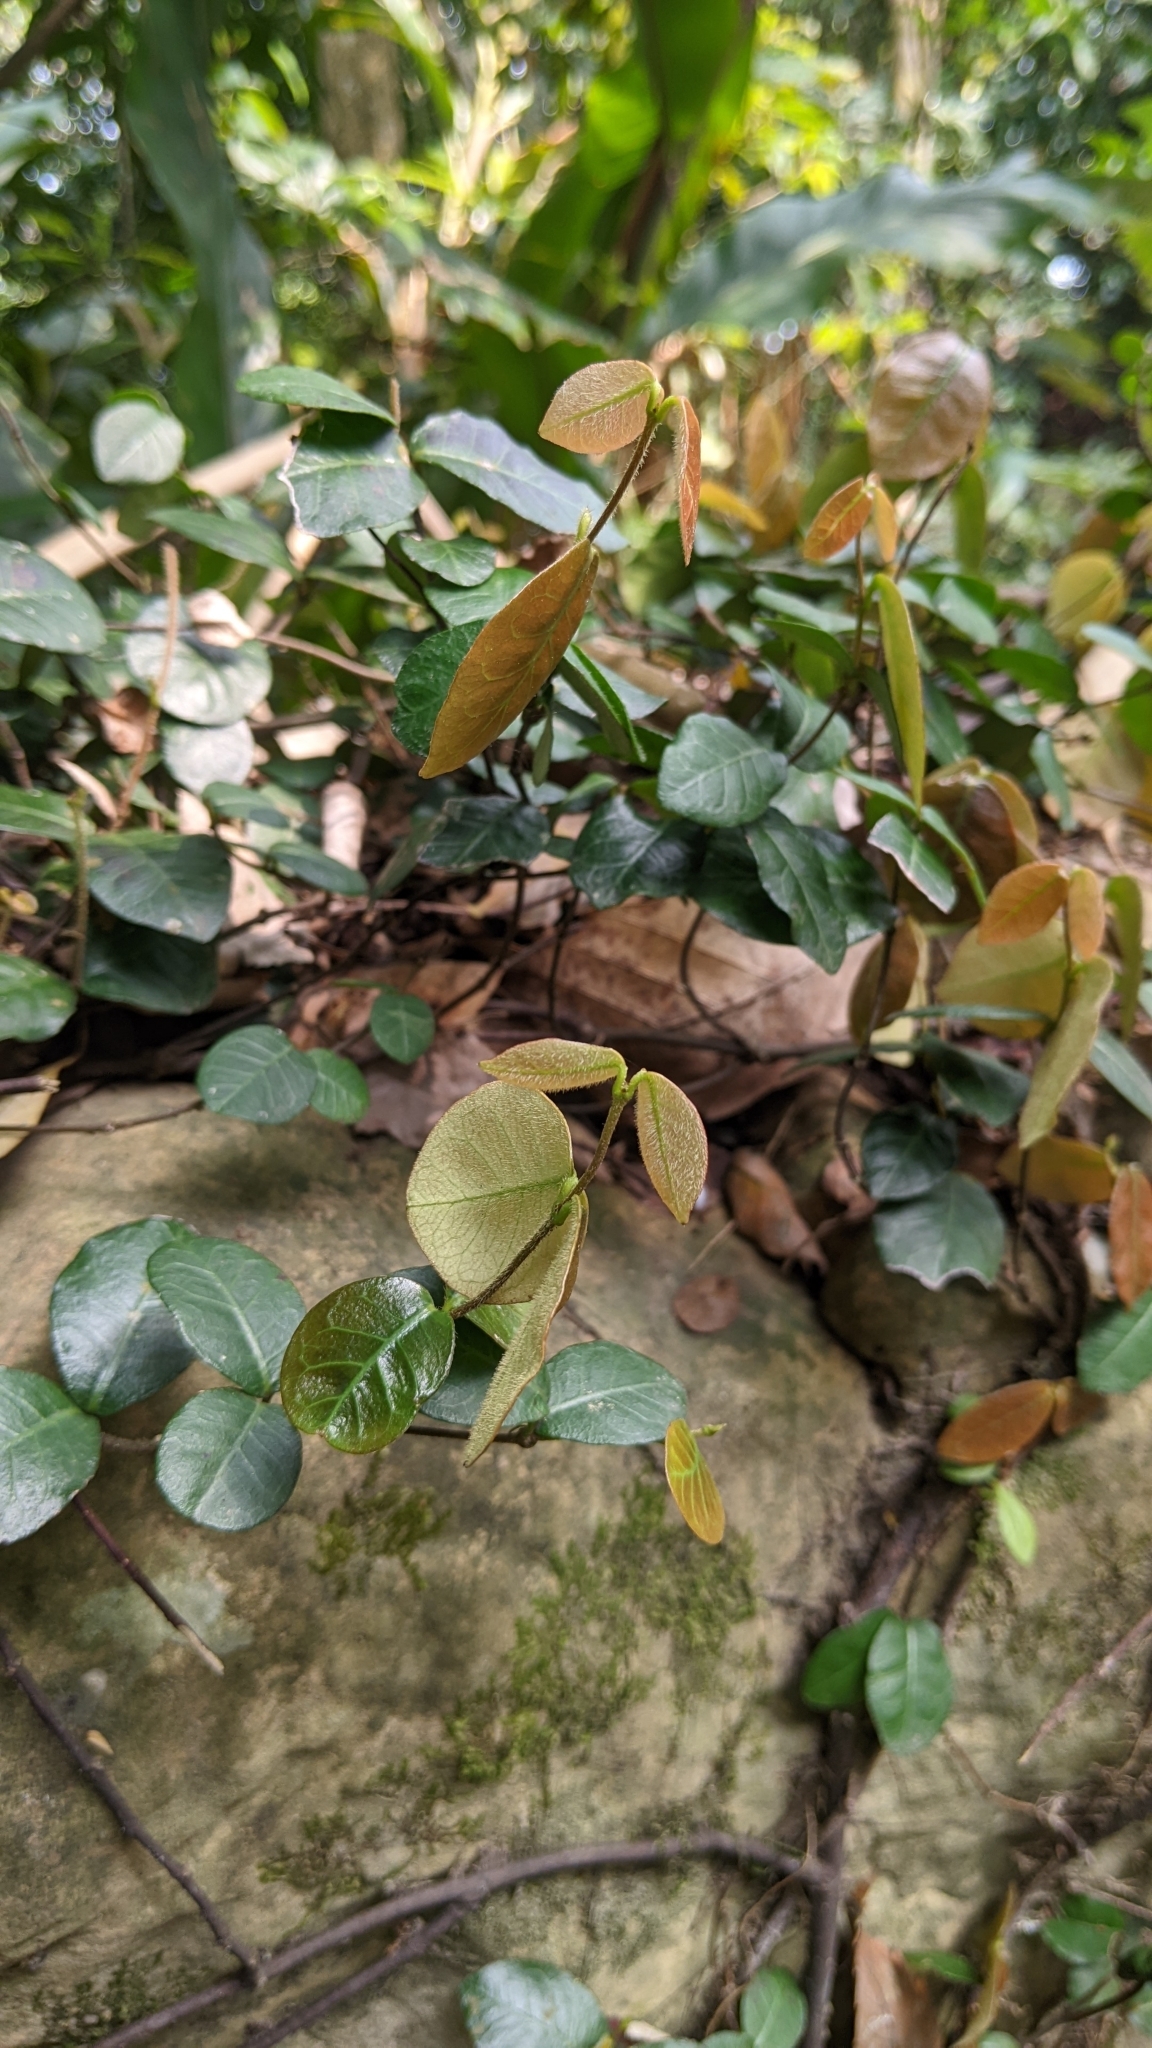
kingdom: Plantae
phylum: Tracheophyta
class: Magnoliopsida
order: Gentianales
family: Apocynaceae
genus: Trachelospermum
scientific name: Trachelospermum jasminoides
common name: Confederate jasmine
